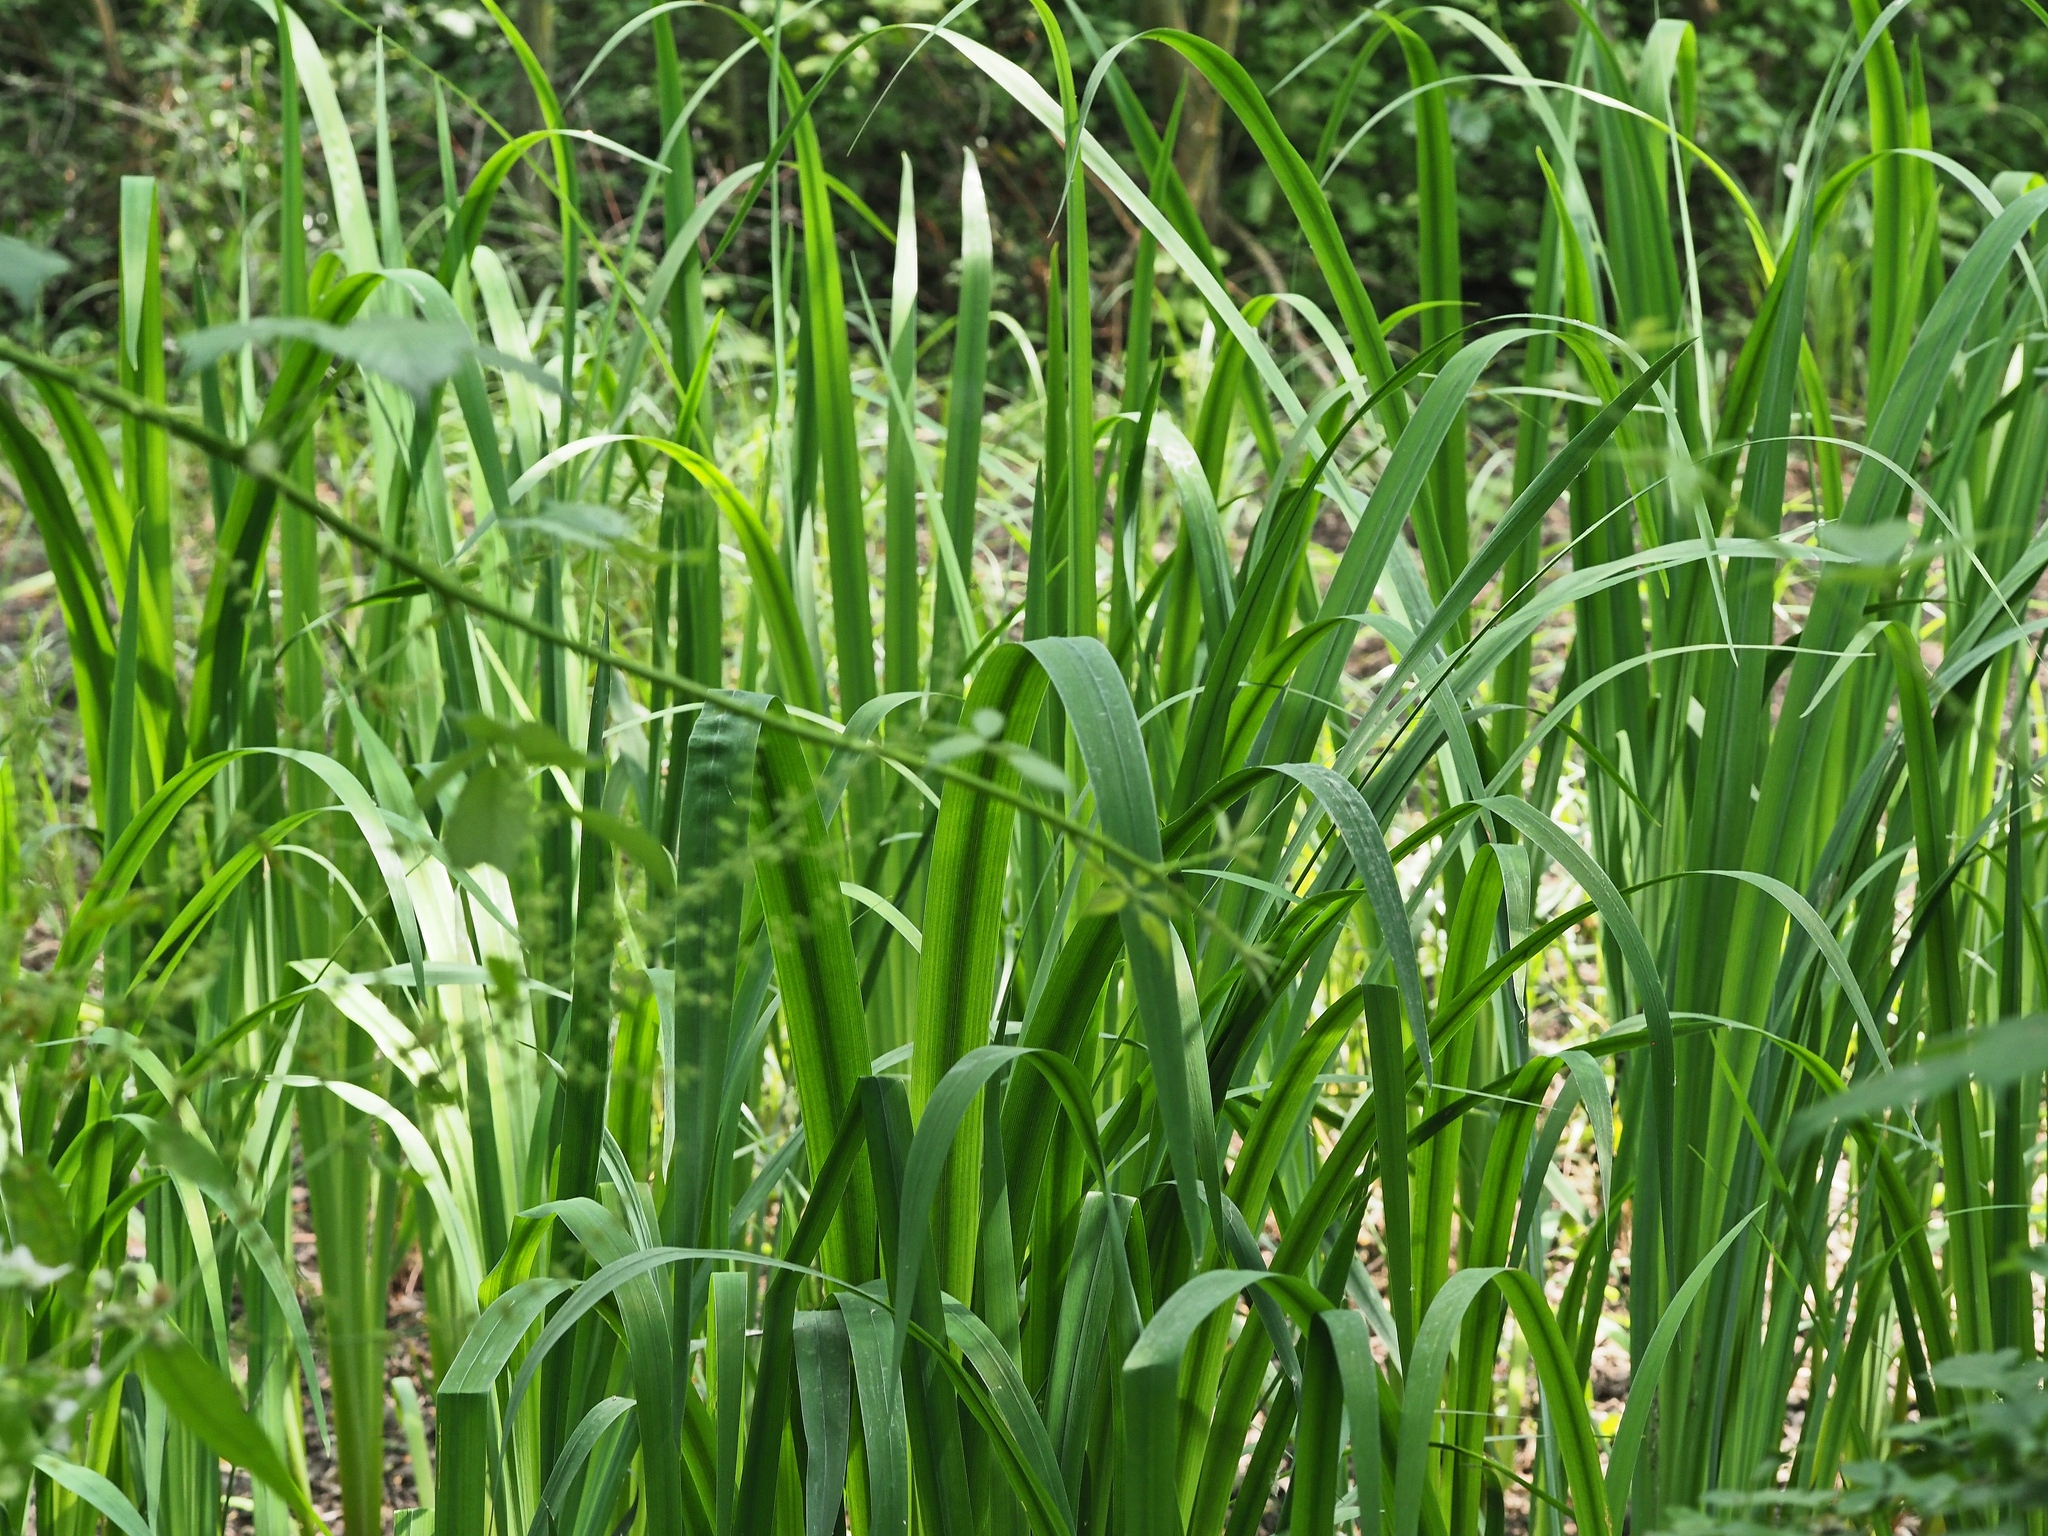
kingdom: Plantae
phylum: Tracheophyta
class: Liliopsida
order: Asparagales
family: Iridaceae
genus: Iris
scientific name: Iris pseudacorus
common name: Yellow flag
